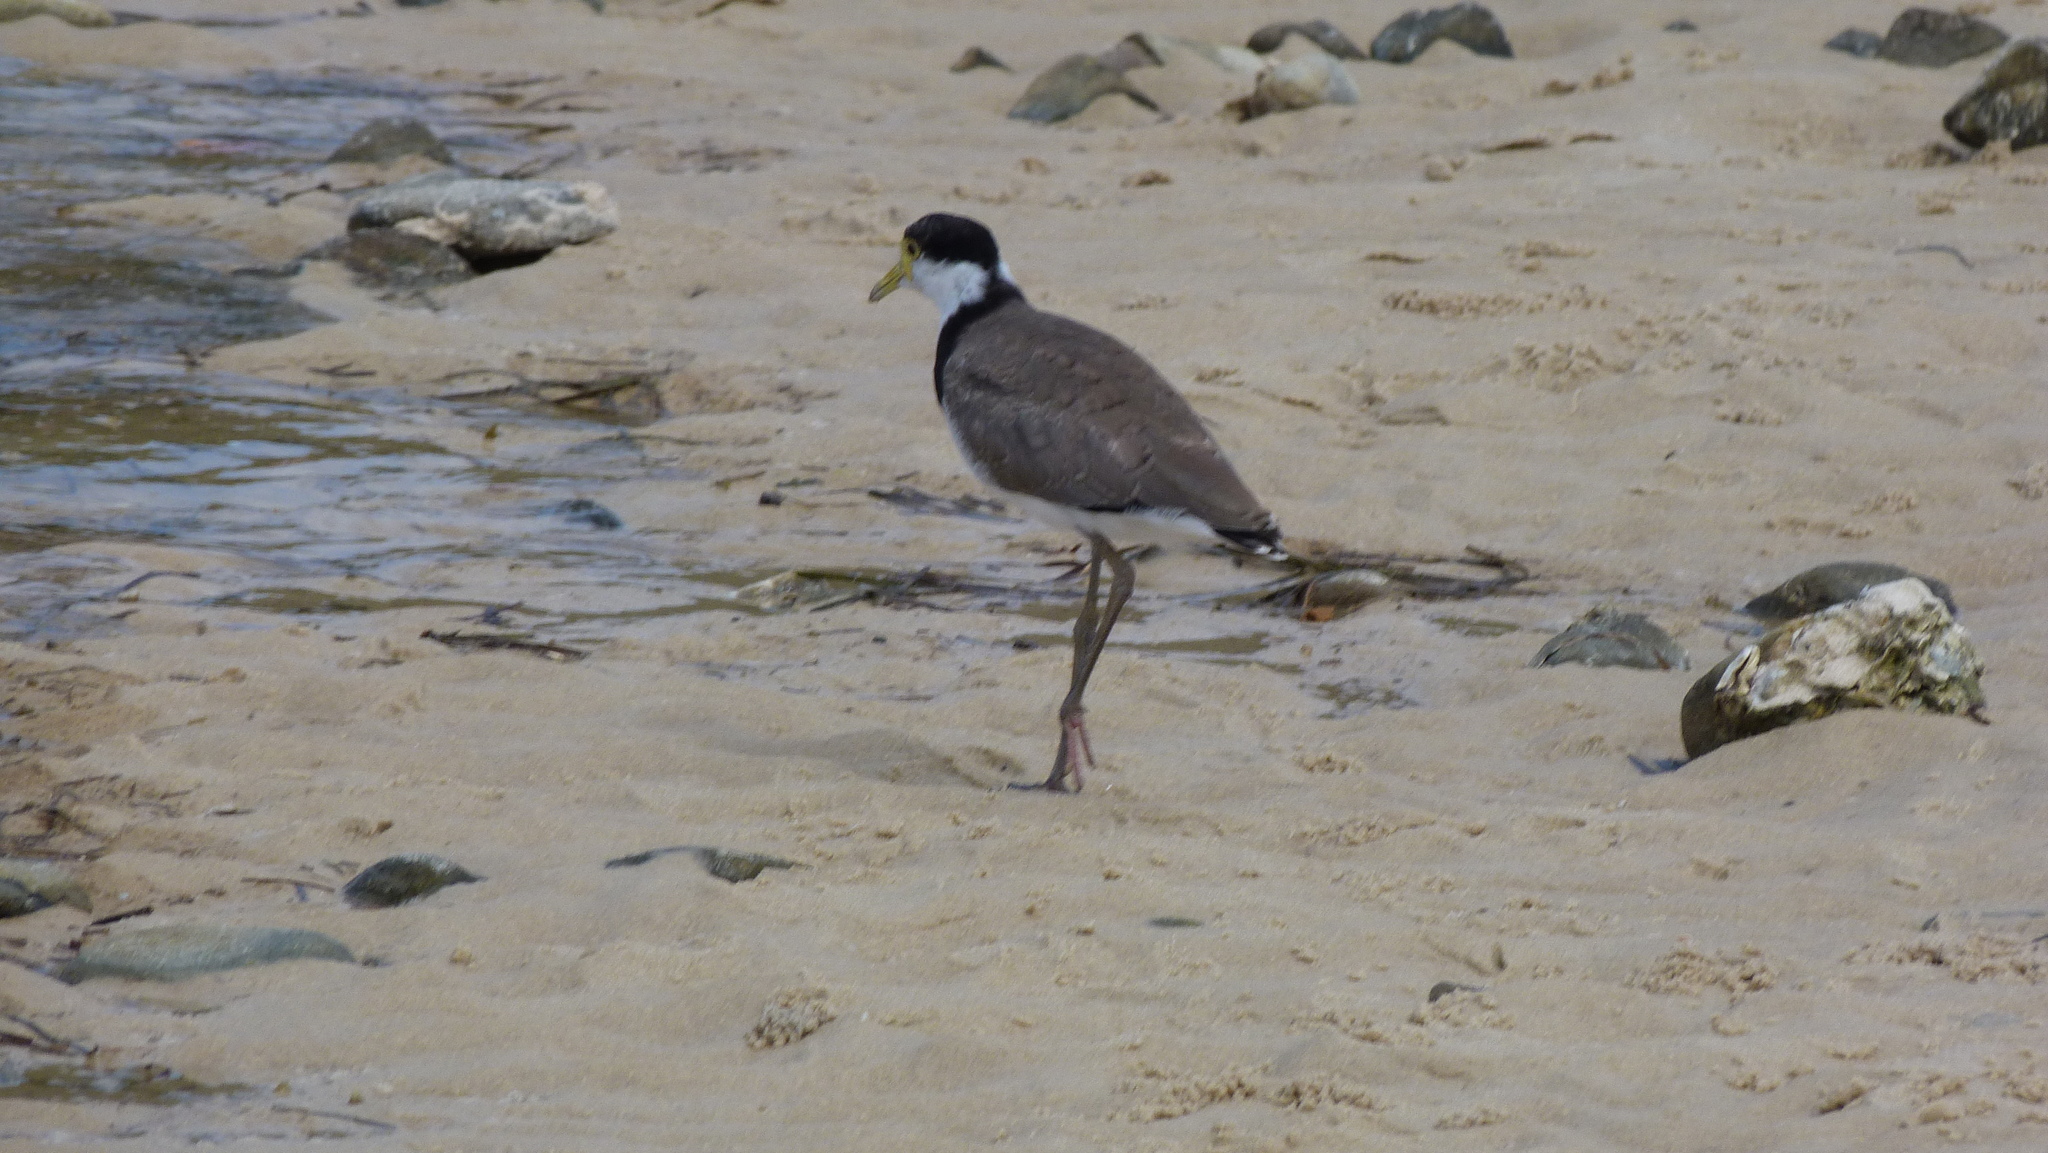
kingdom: Animalia
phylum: Chordata
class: Aves
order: Charadriiformes
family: Charadriidae
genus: Vanellus
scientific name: Vanellus miles
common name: Masked lapwing
